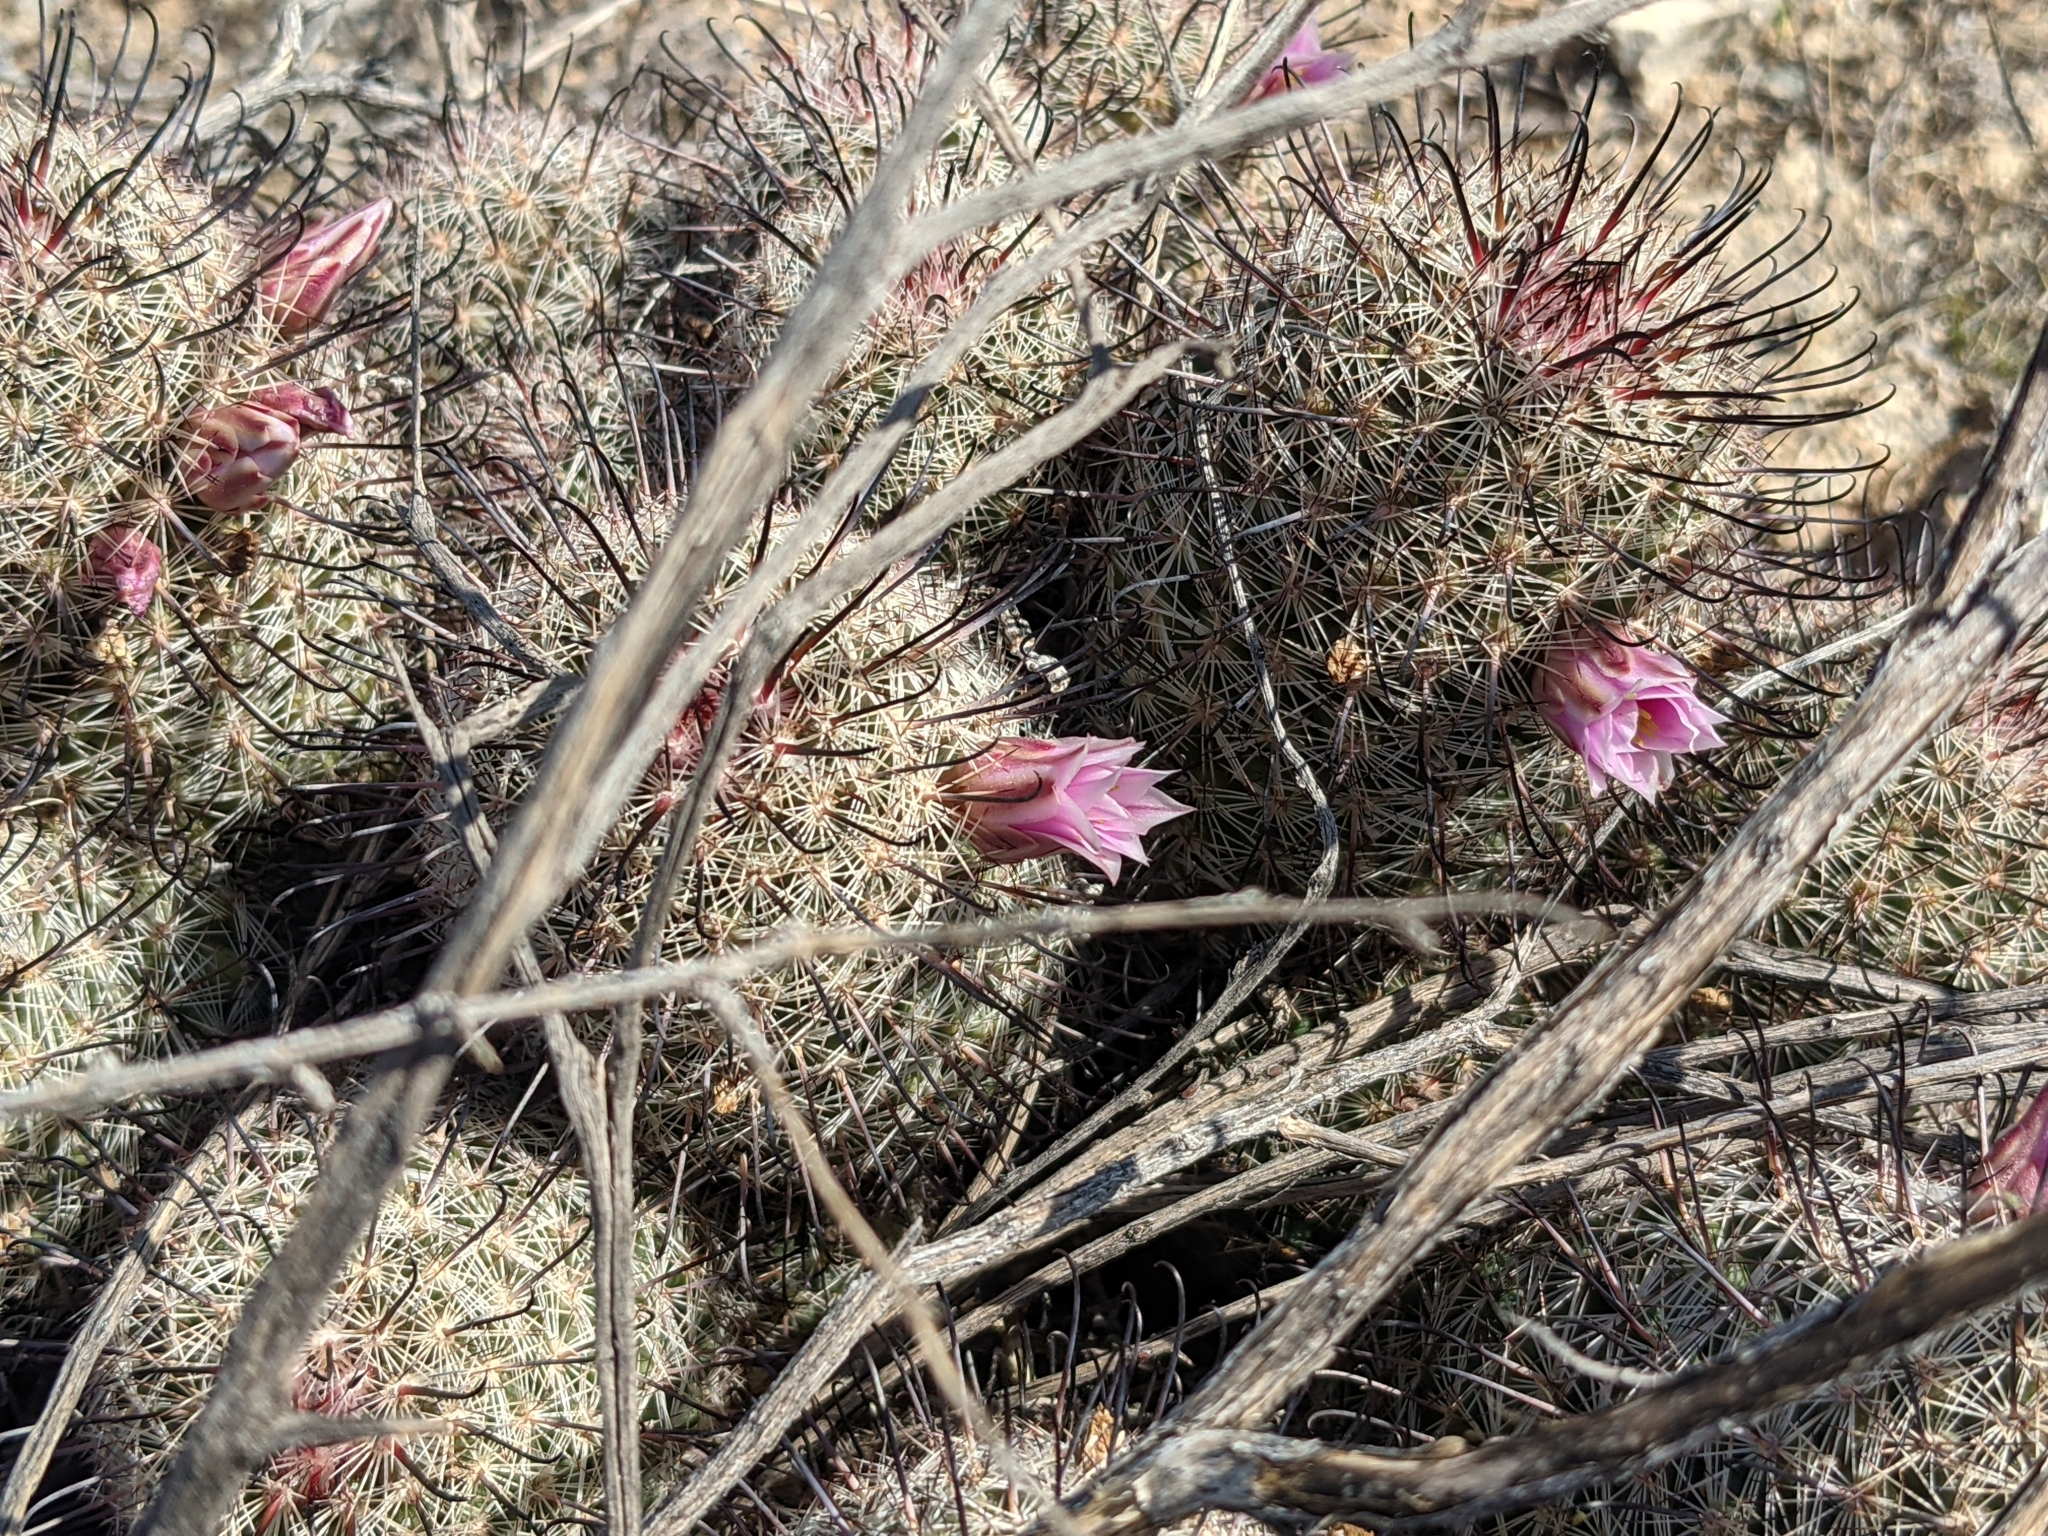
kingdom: Plantae
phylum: Tracheophyta
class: Magnoliopsida
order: Caryophyllales
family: Cactaceae
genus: Cochemiea
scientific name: Cochemiea grahamii
